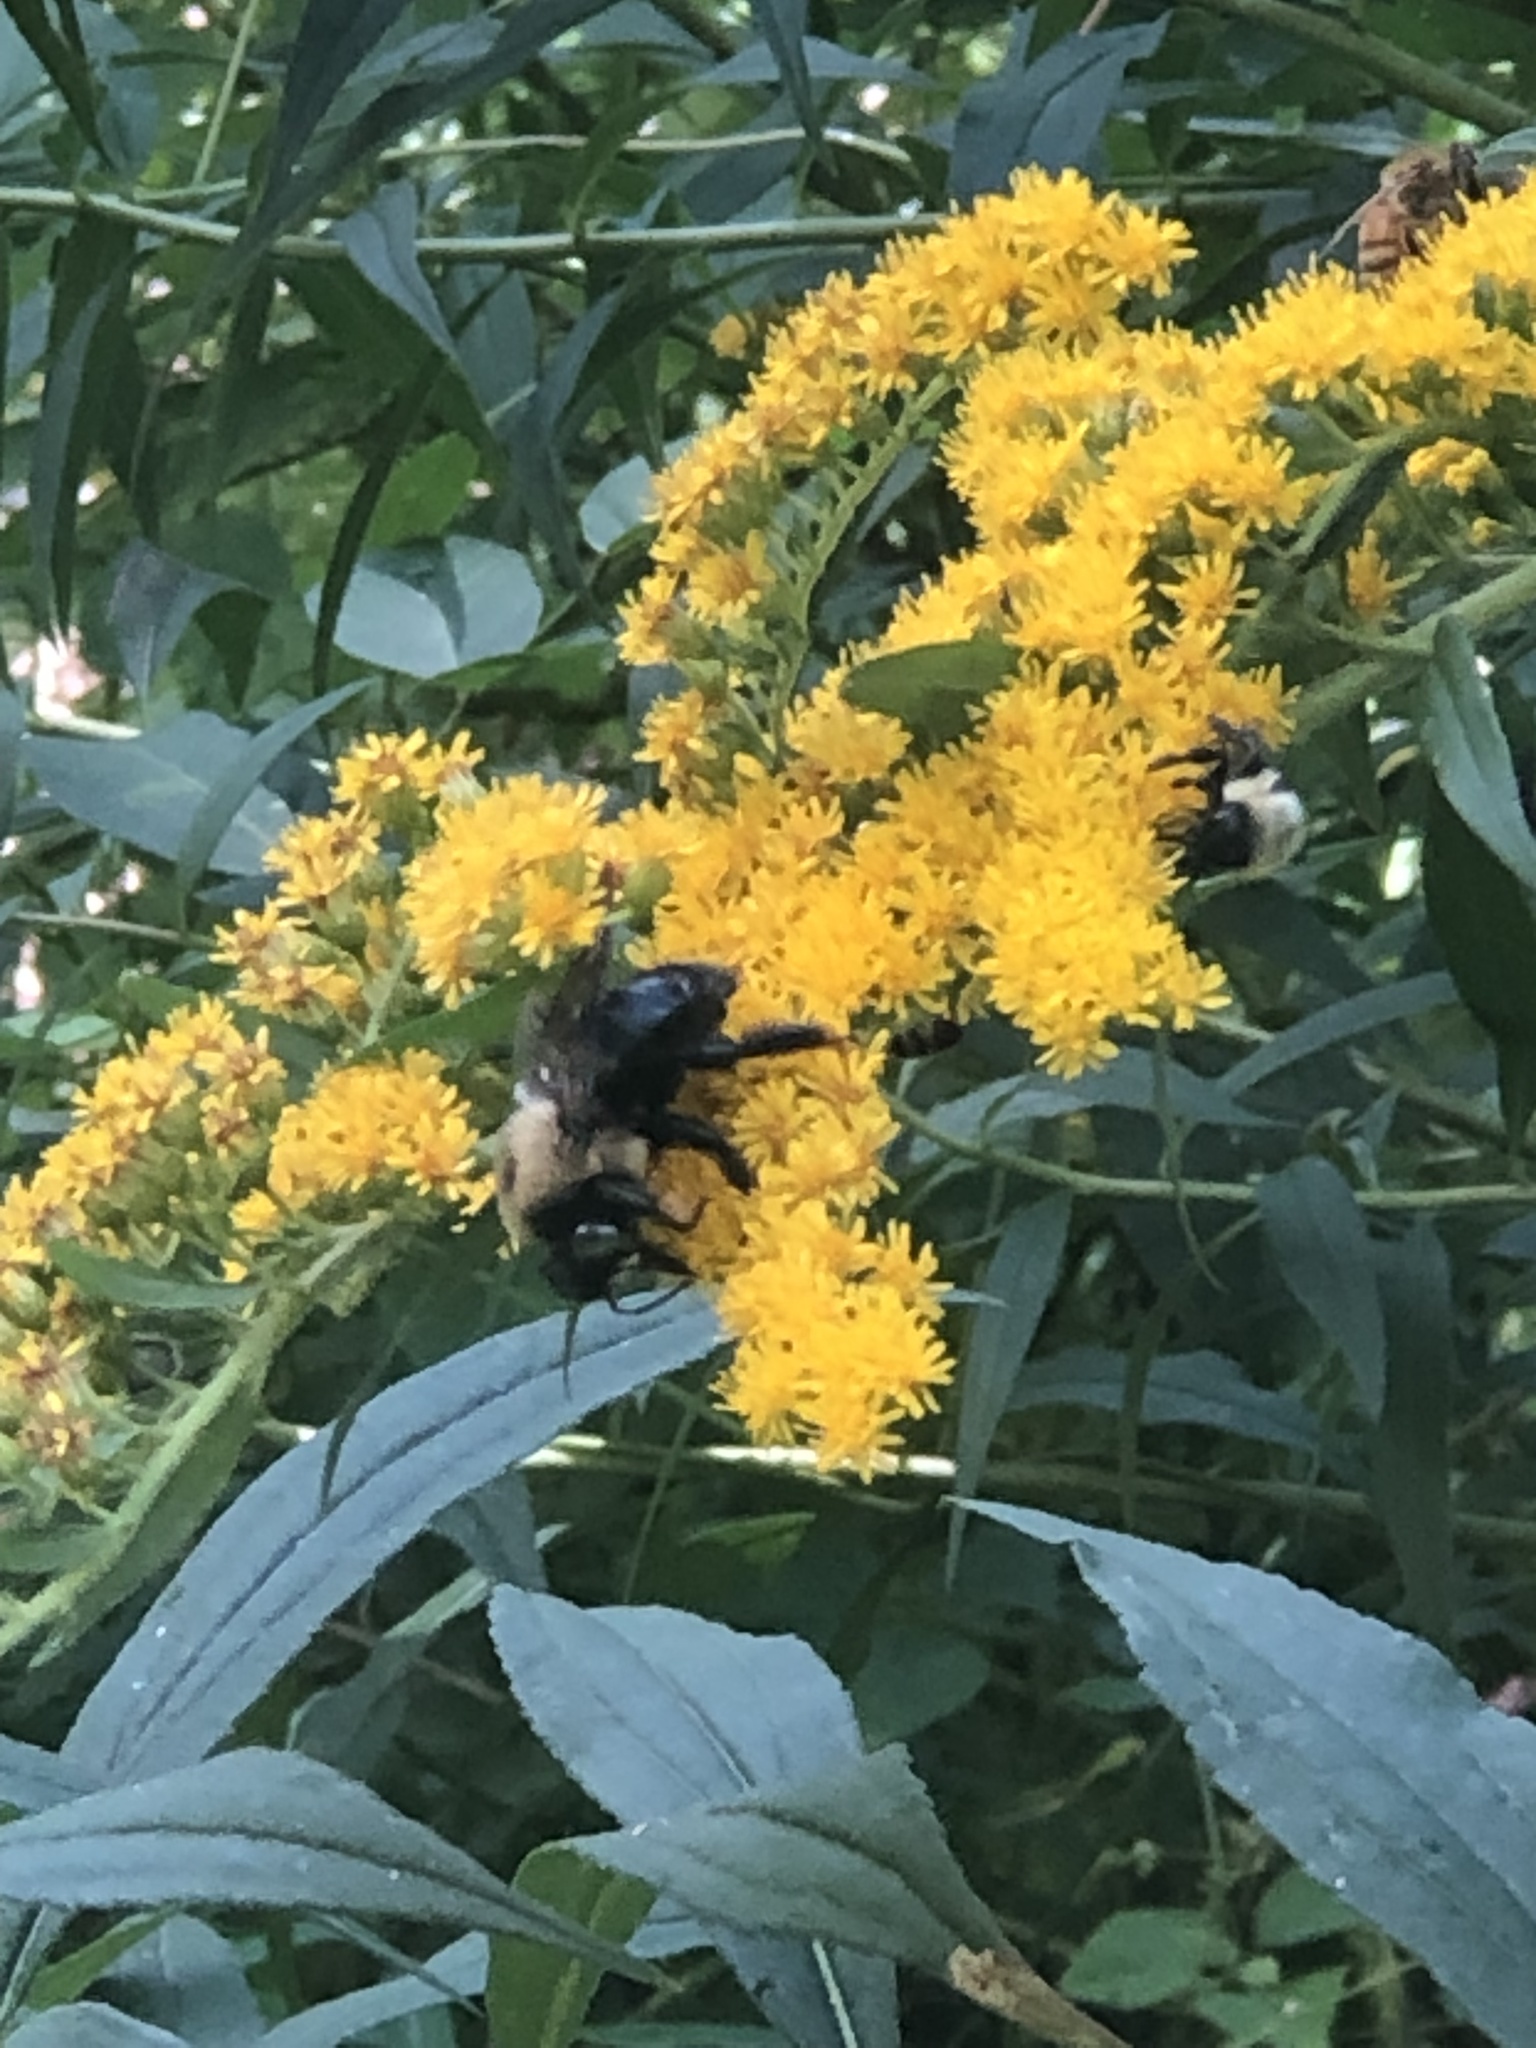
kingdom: Animalia
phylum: Arthropoda
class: Insecta
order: Hymenoptera
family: Apidae
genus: Xylocopa
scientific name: Xylocopa virginica
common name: Carpenter bee
